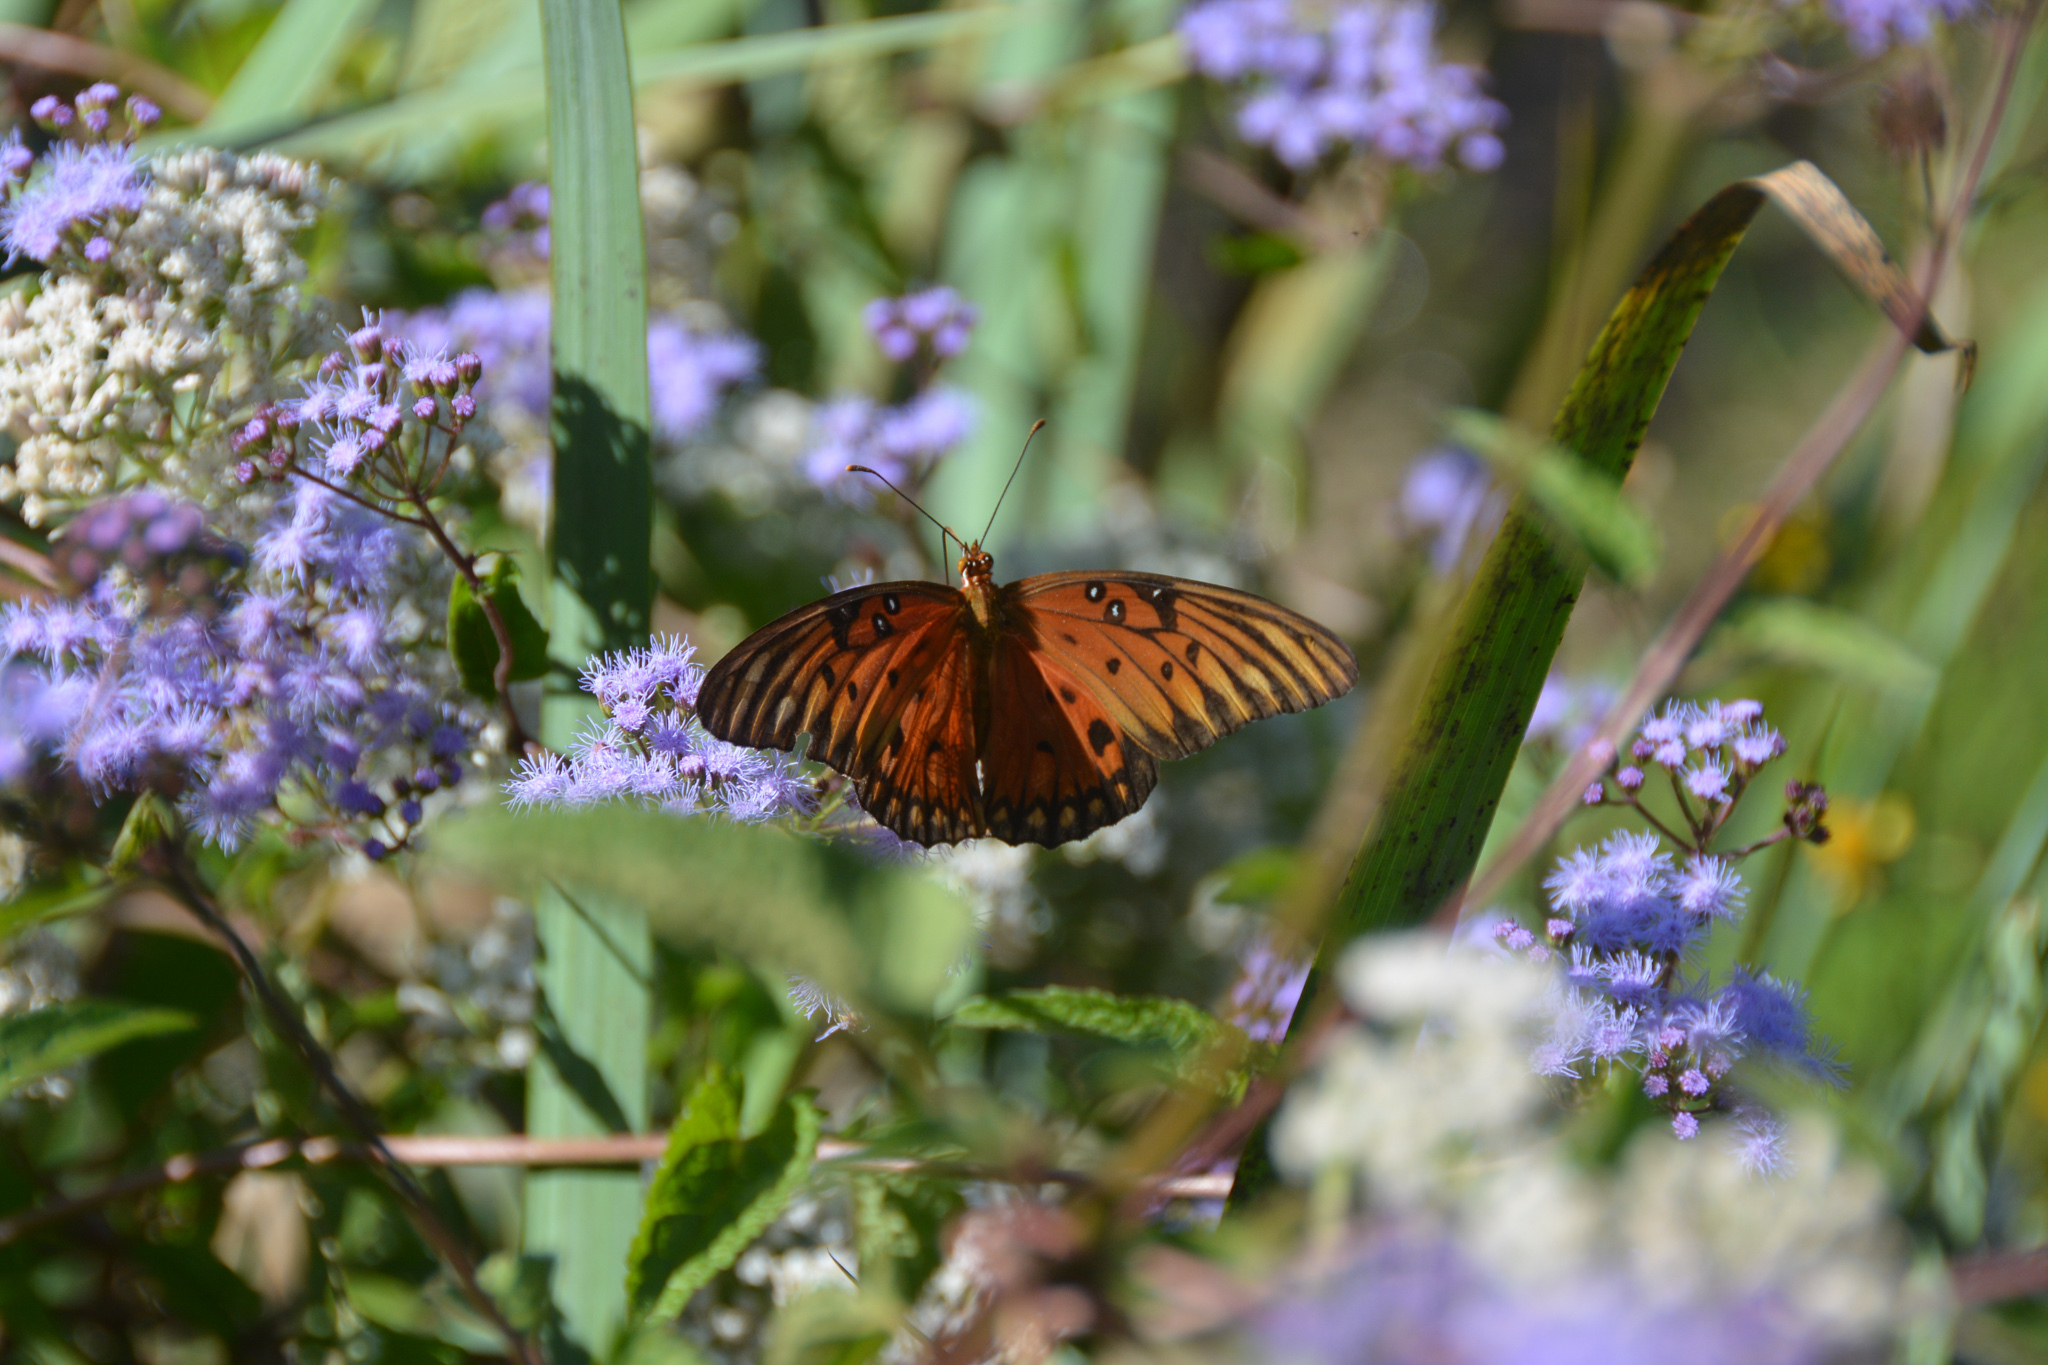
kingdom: Animalia
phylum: Arthropoda
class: Insecta
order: Lepidoptera
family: Nymphalidae
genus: Dione
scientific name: Dione vanillae
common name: Gulf fritillary
